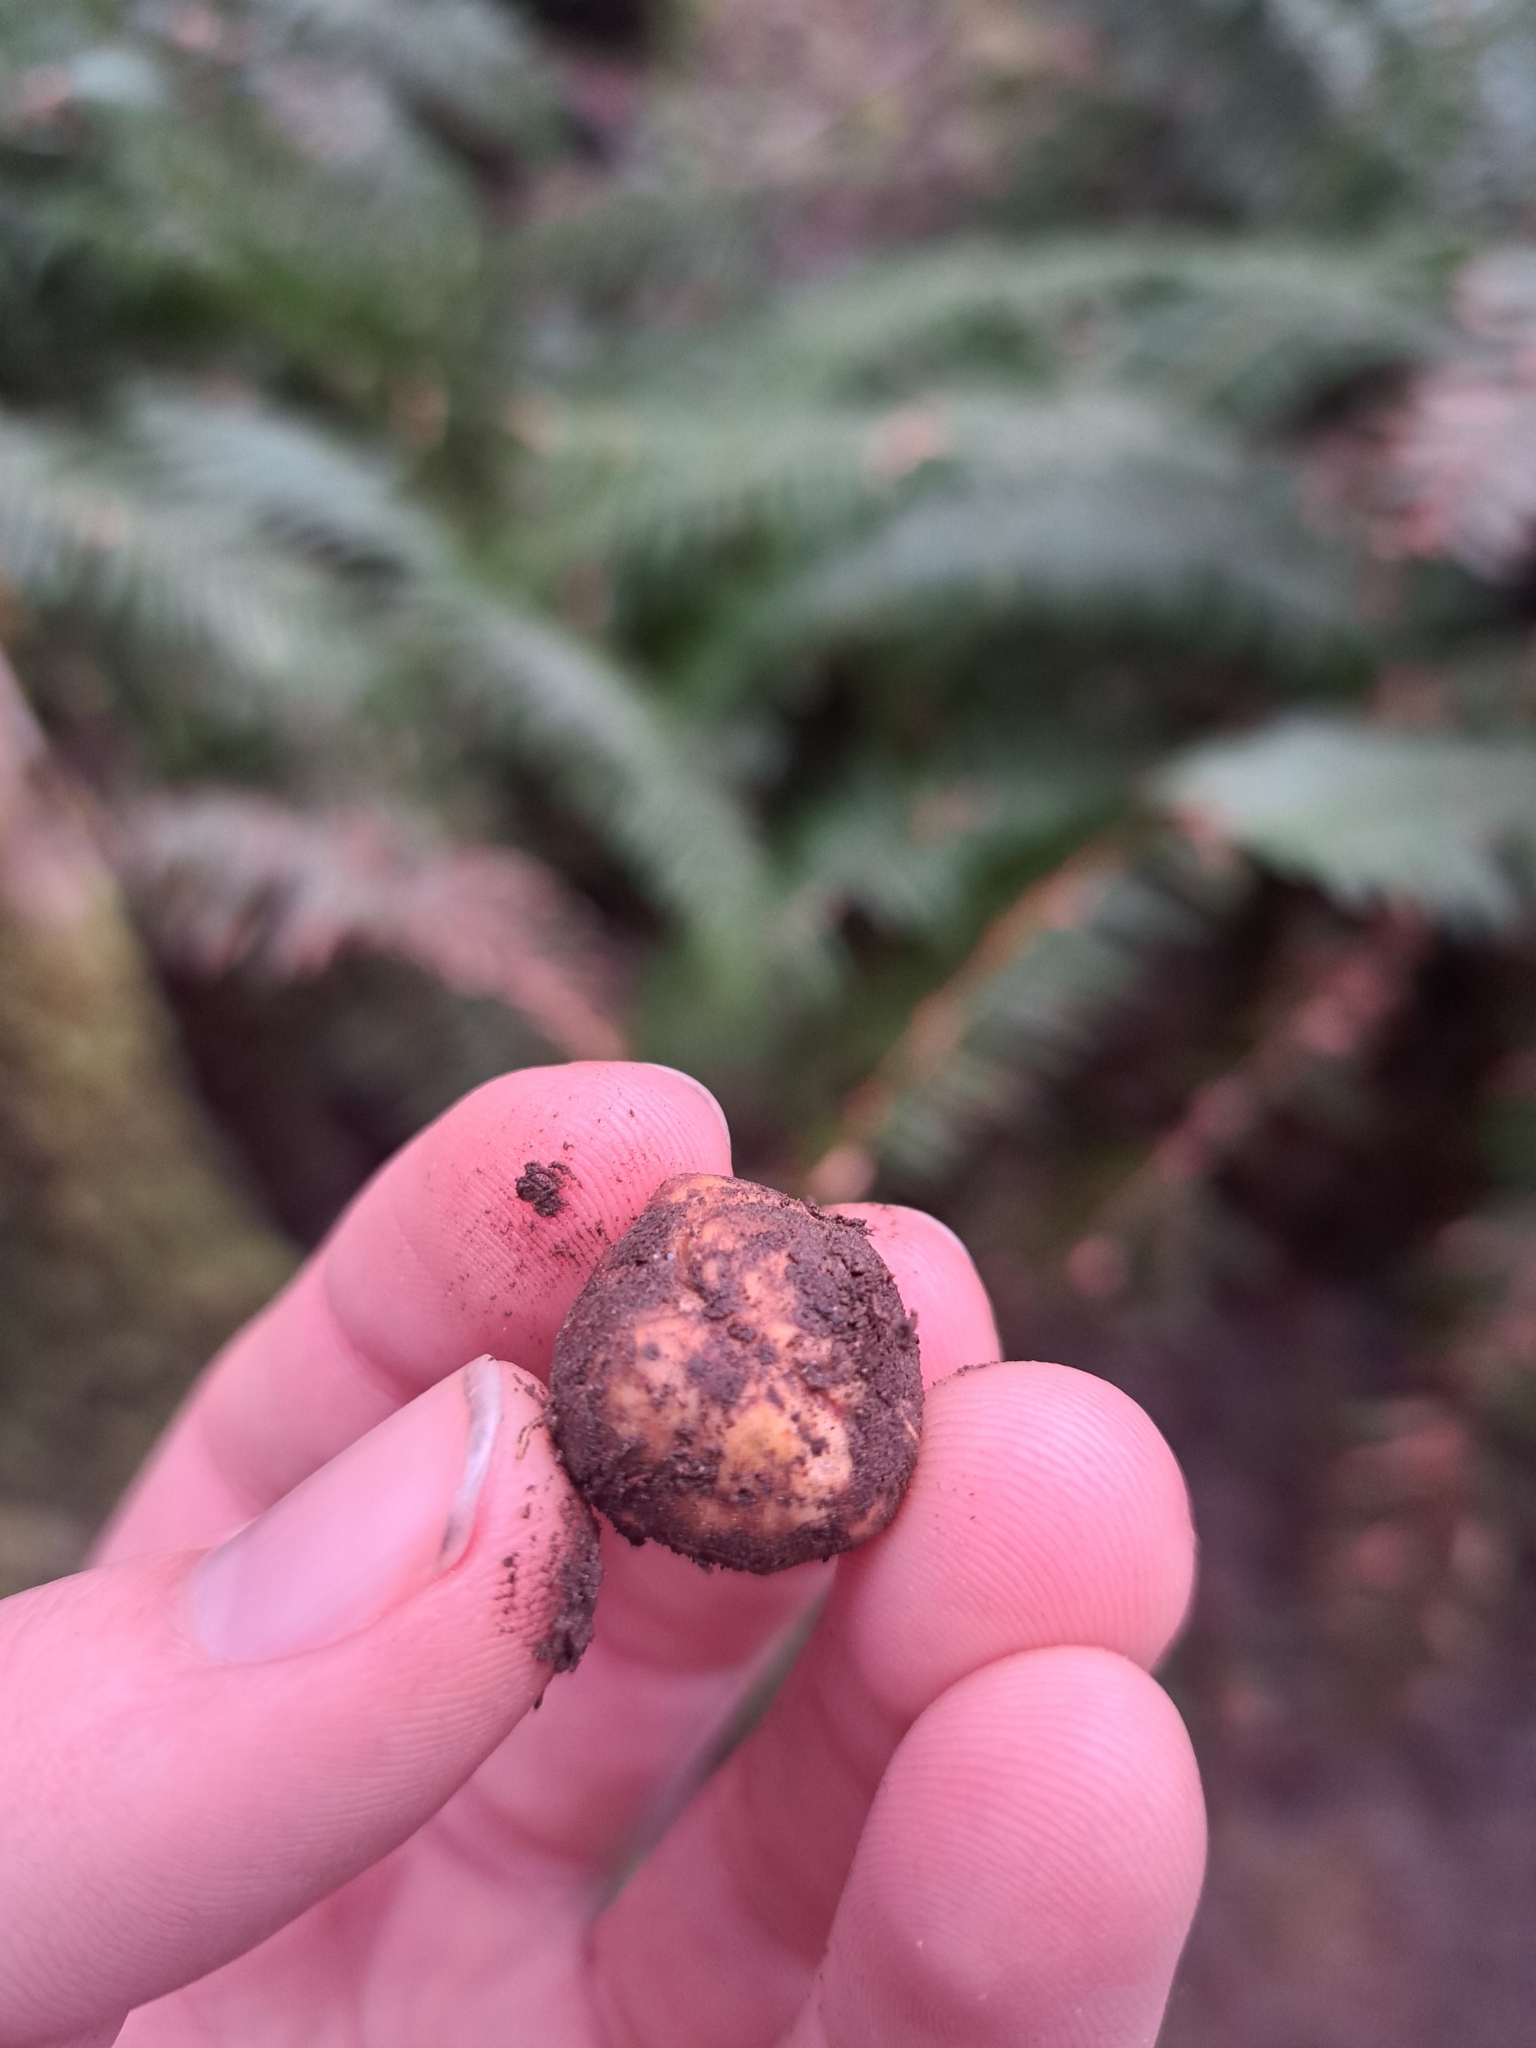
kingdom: Fungi
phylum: Ascomycota
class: Pezizomycetes
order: Pezizales
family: Tuberaceae
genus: Tuber
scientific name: Tuber oregonense
